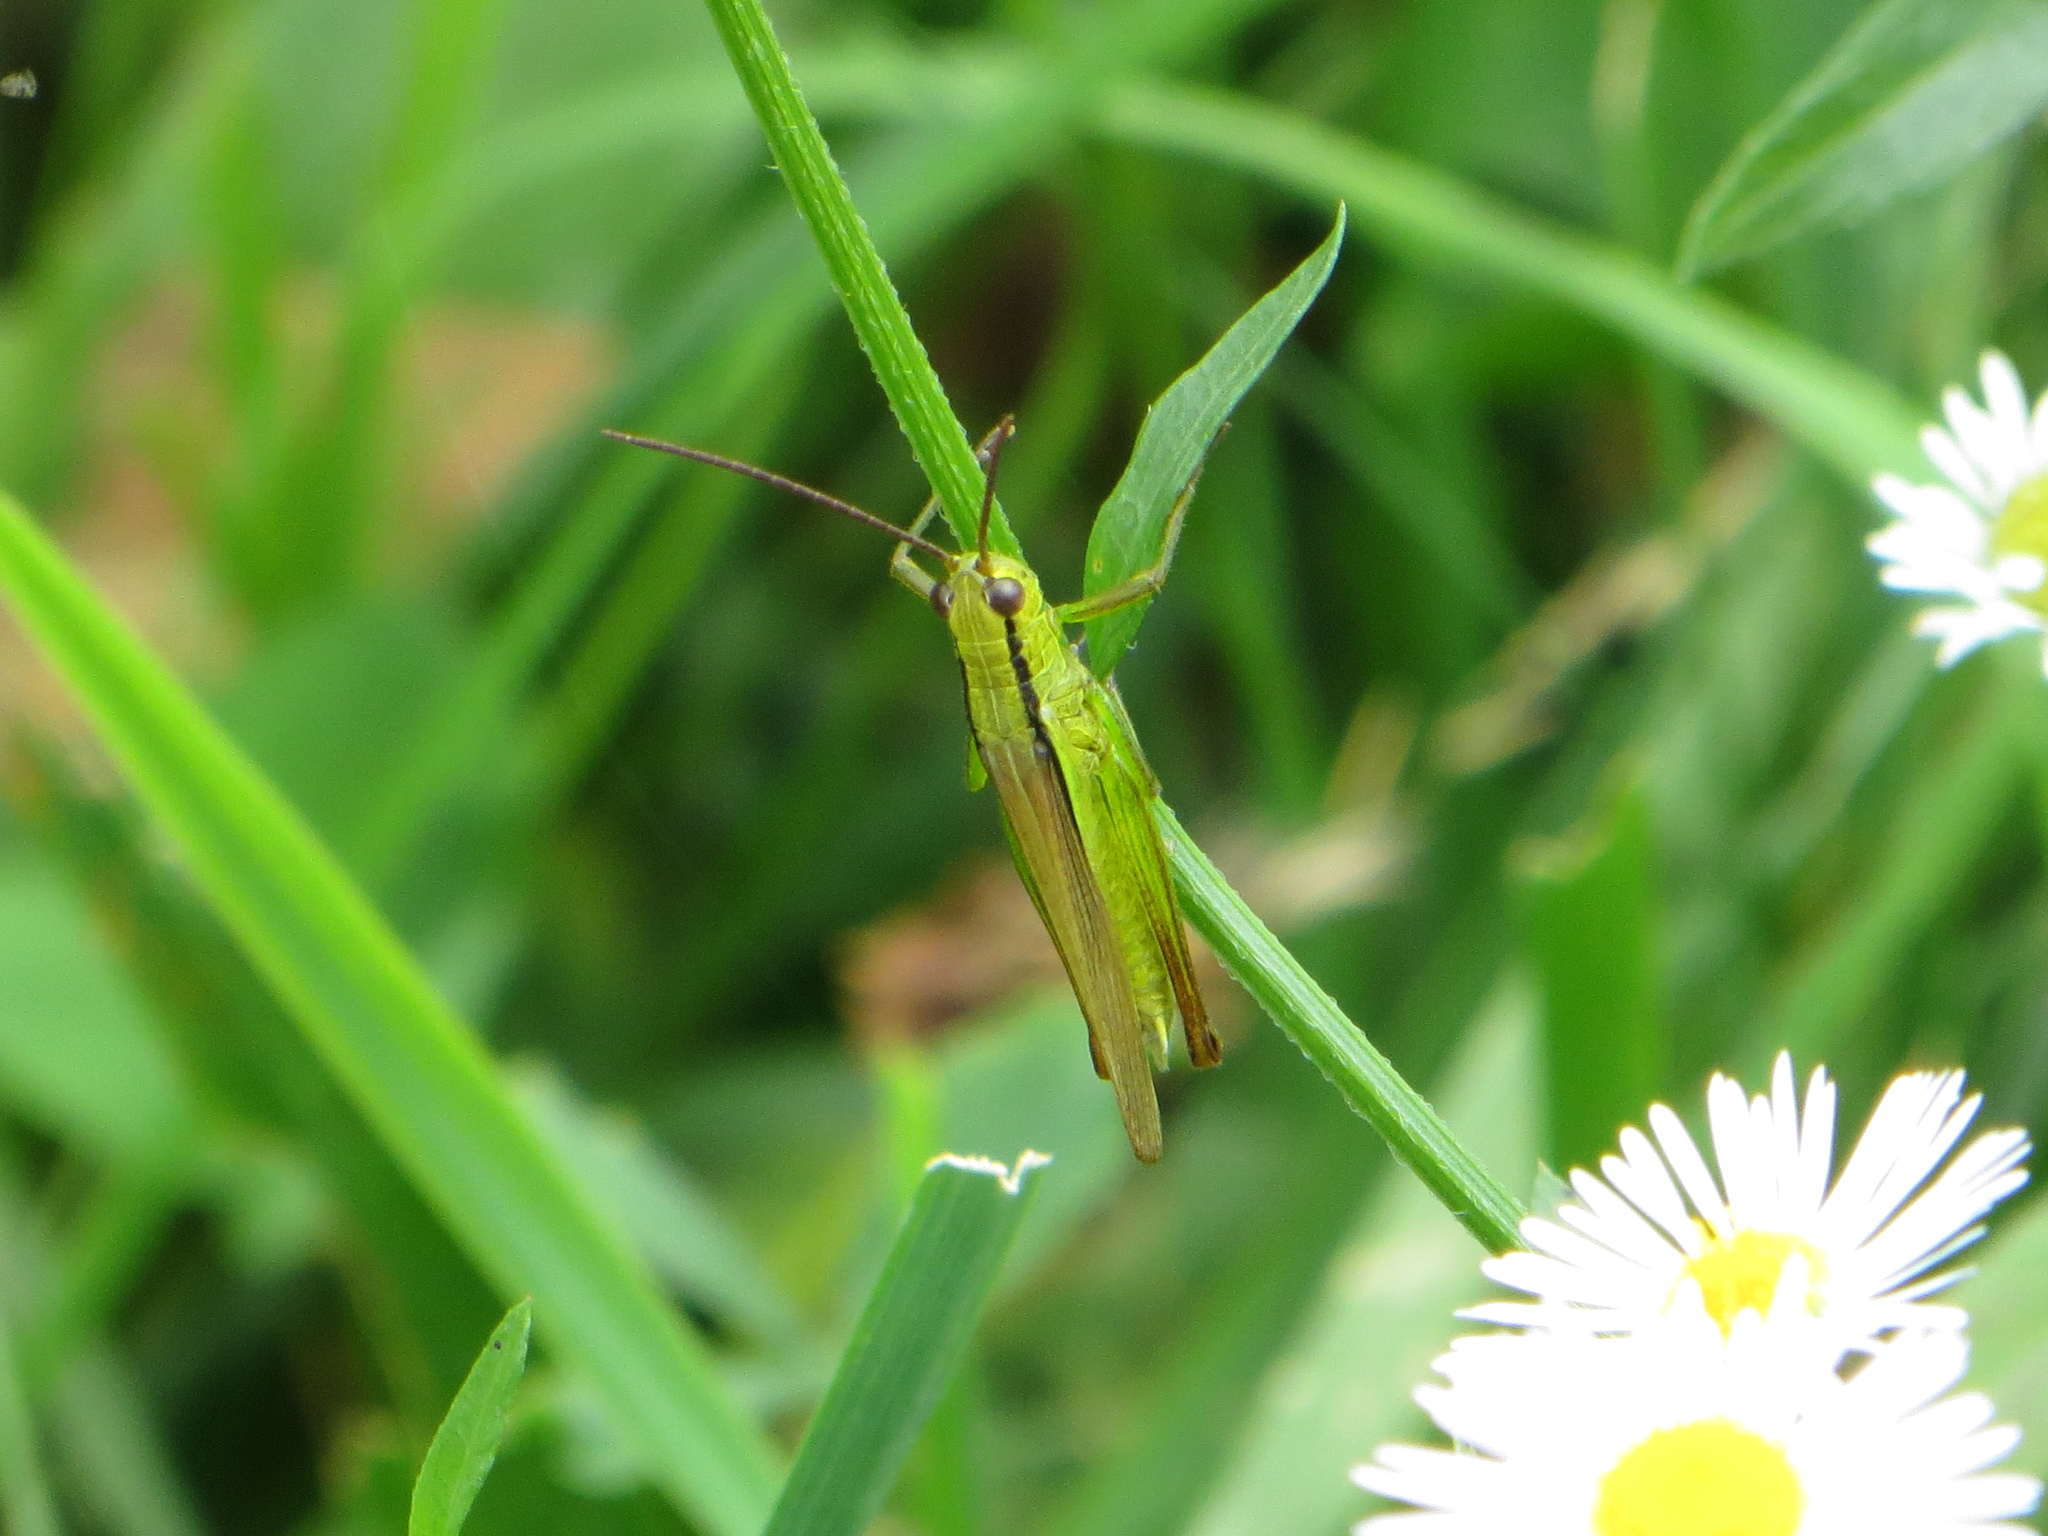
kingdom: Animalia
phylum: Arthropoda
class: Insecta
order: Orthoptera
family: Acrididae
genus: Mecostethus
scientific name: Mecostethus parapleurus
